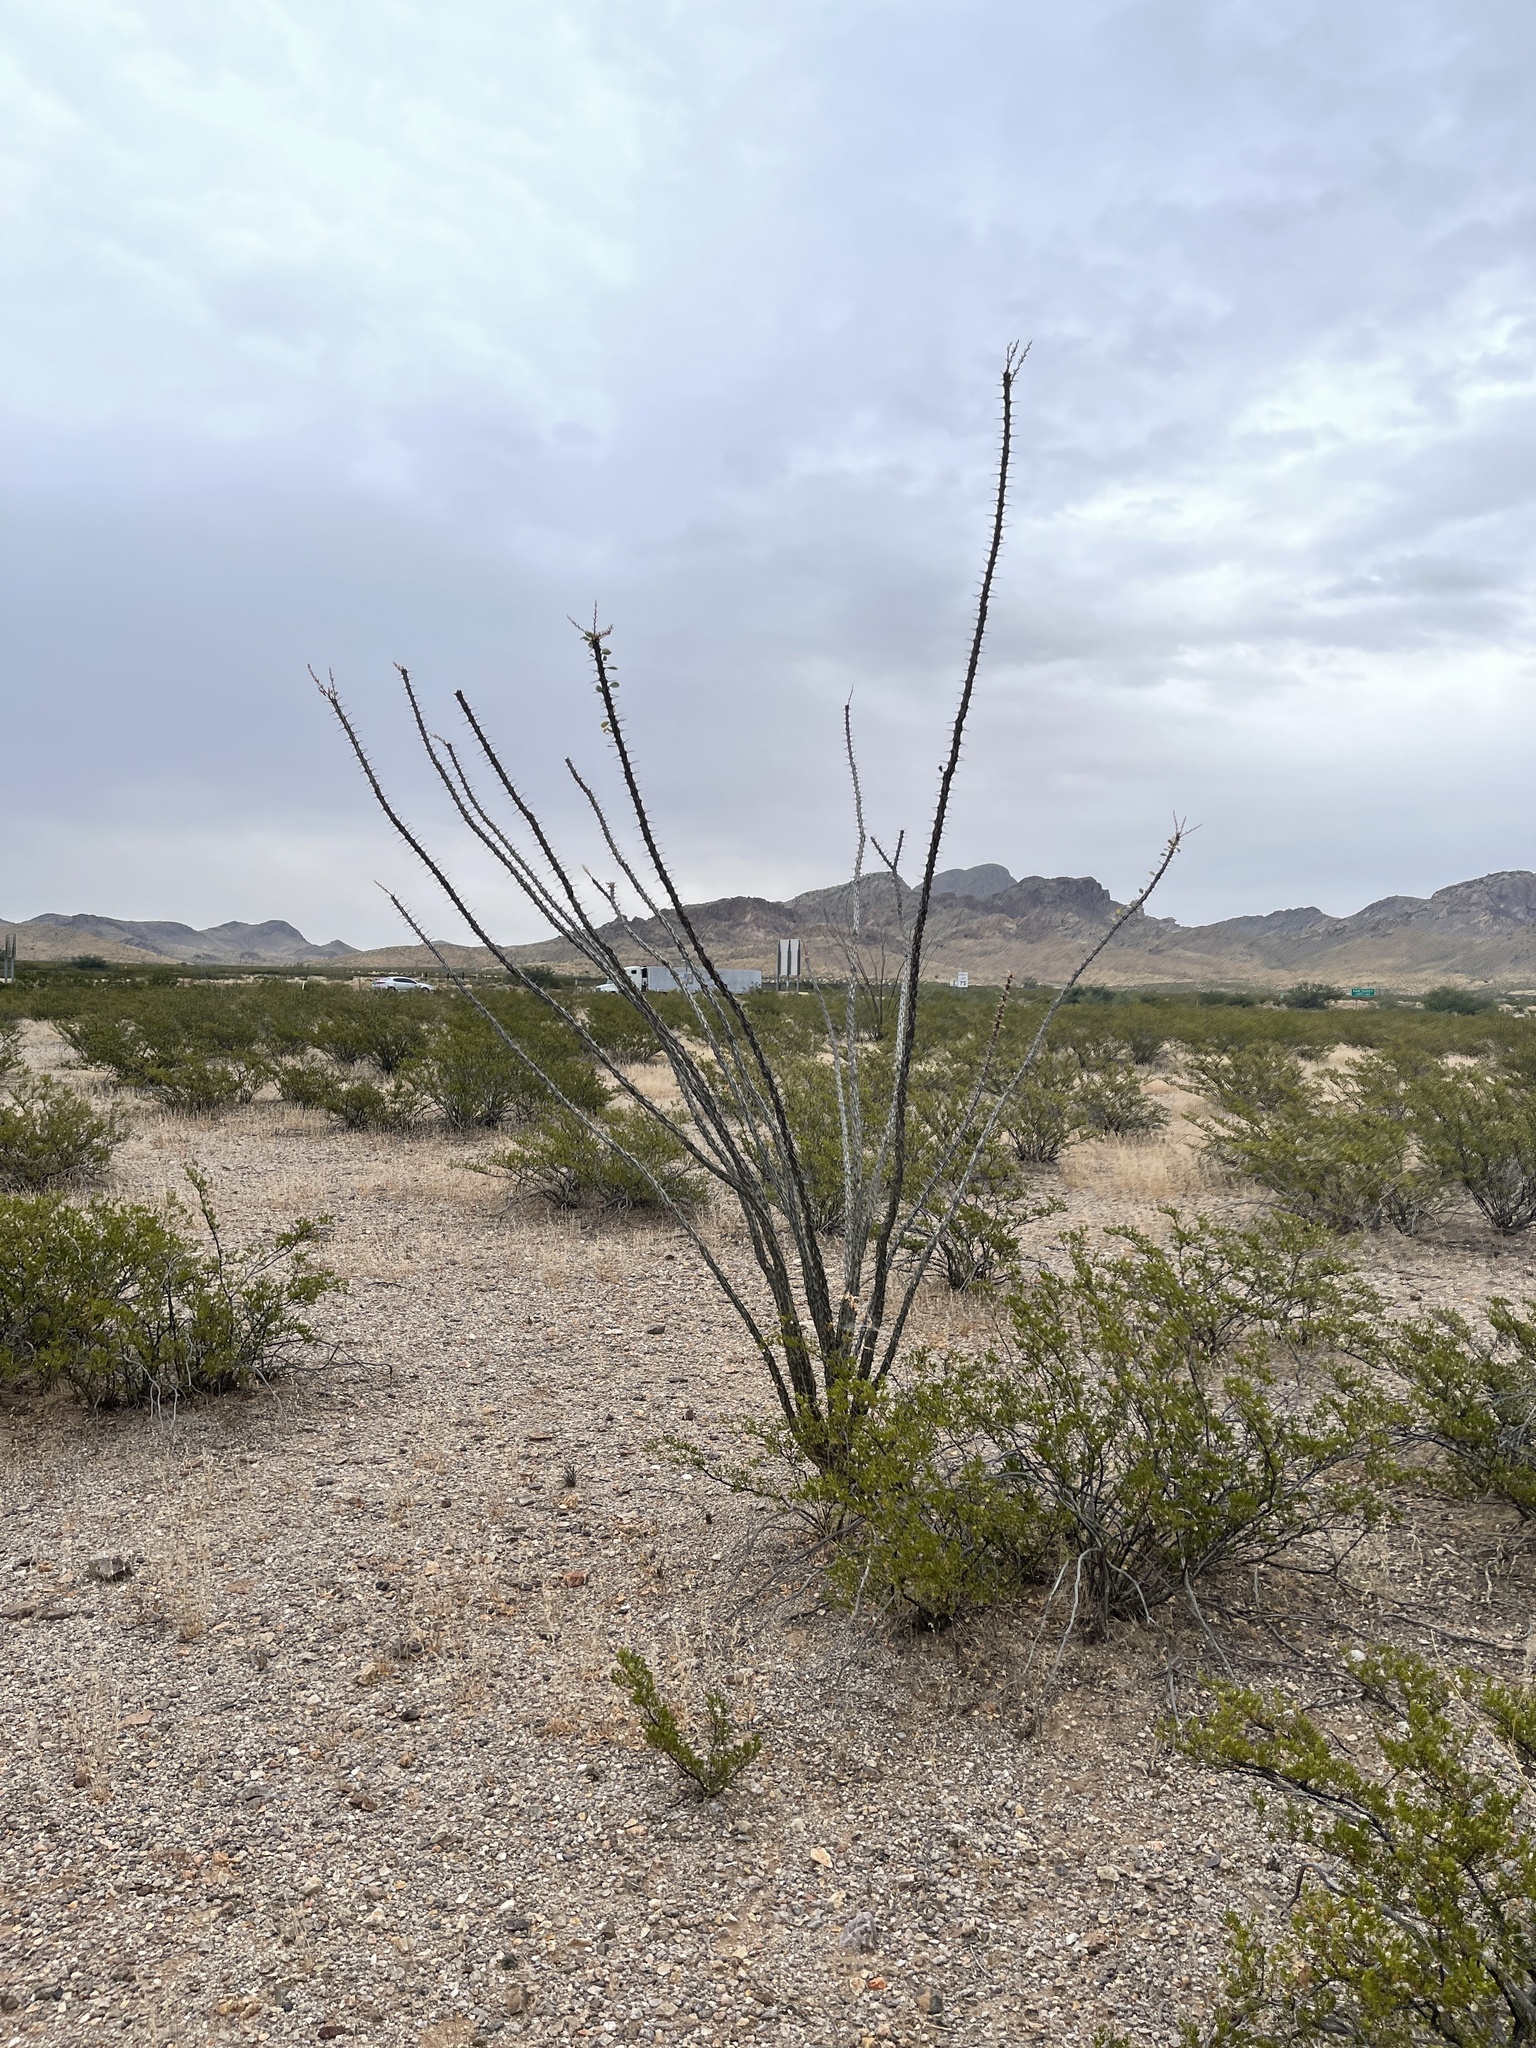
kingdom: Plantae
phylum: Tracheophyta
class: Magnoliopsida
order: Ericales
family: Fouquieriaceae
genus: Fouquieria
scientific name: Fouquieria splendens
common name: Vine-cactus
